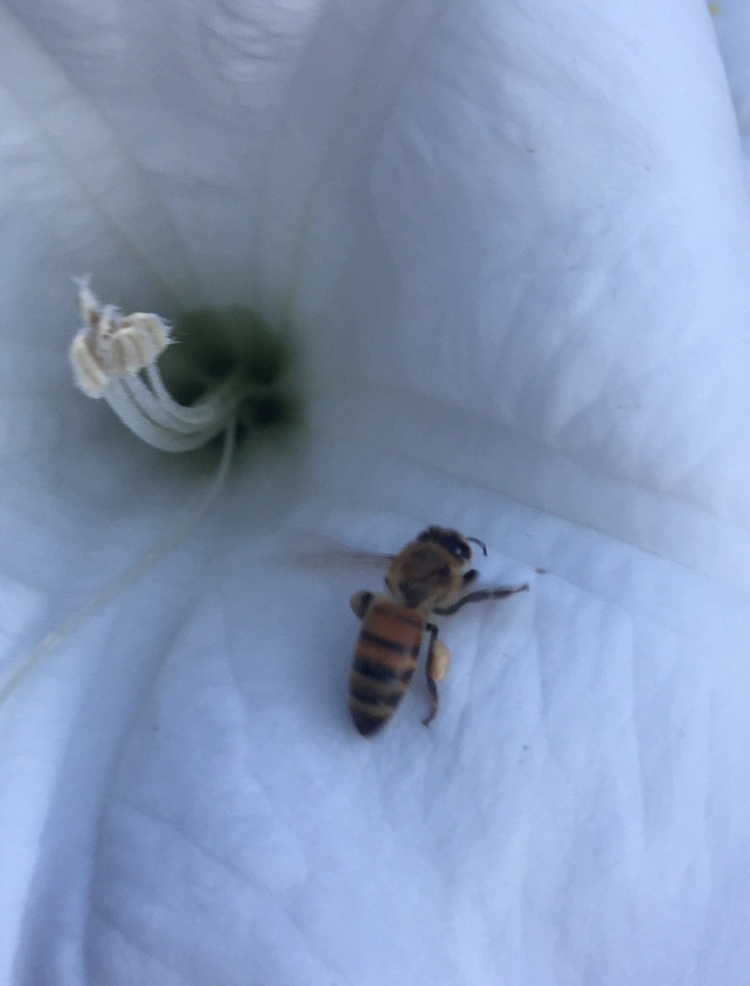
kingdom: Animalia
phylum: Arthropoda
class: Insecta
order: Hymenoptera
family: Apidae
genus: Apis
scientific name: Apis mellifera
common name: Honey bee
